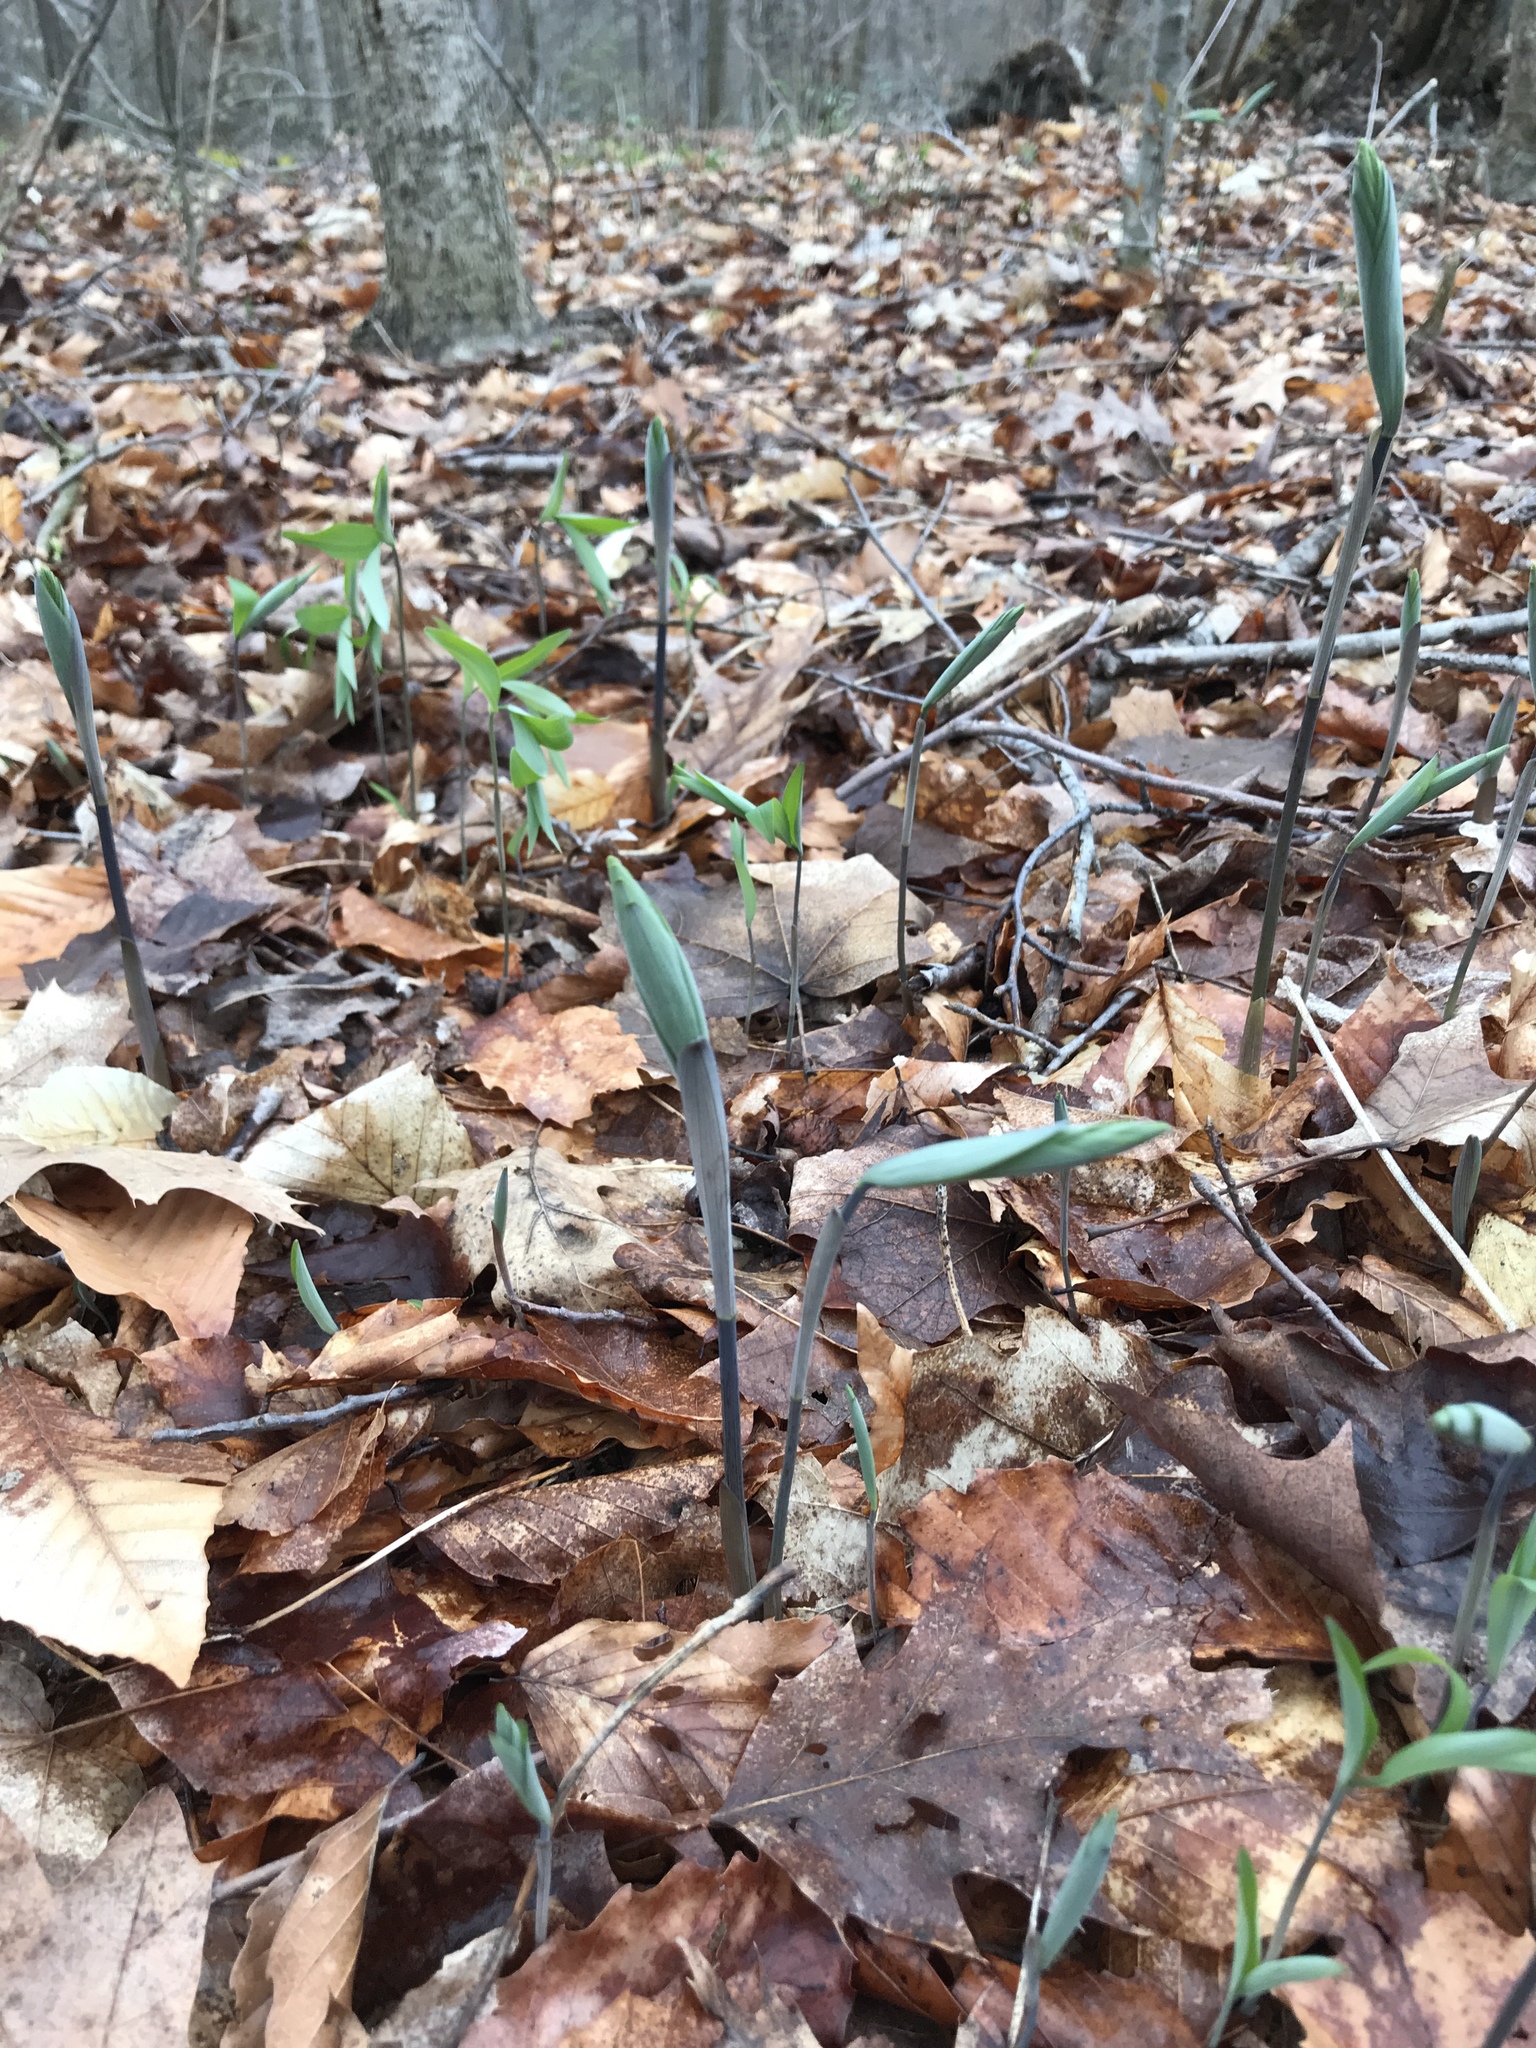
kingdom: Plantae
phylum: Tracheophyta
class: Liliopsida
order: Asparagales
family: Asparagaceae
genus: Polygonatum
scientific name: Polygonatum pubescens
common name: Downy solomon's seal
